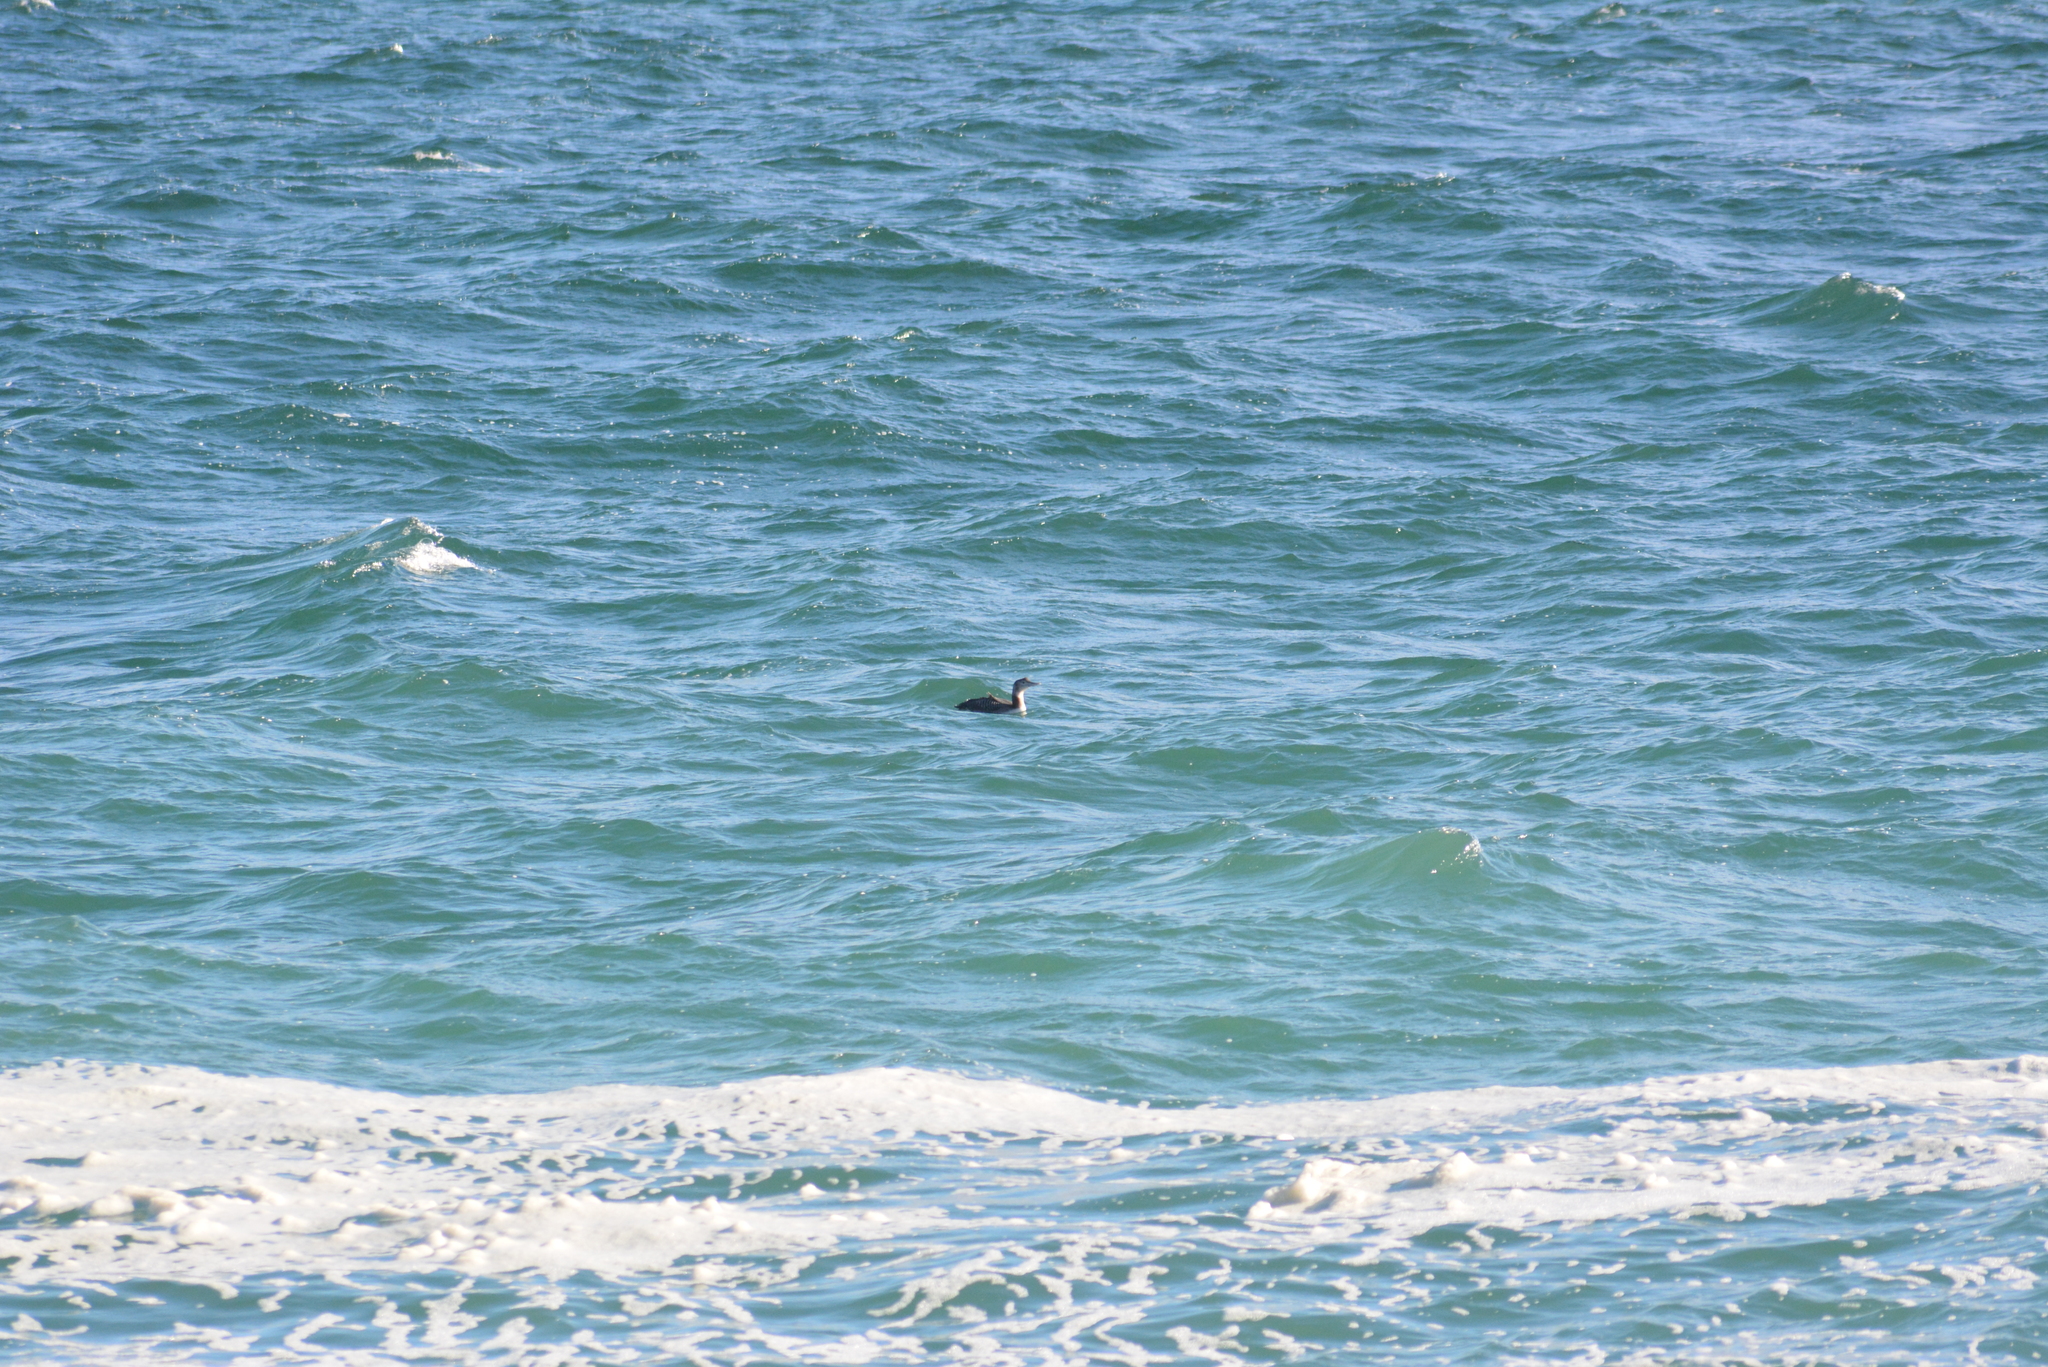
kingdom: Animalia
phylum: Chordata
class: Aves
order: Gaviiformes
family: Gaviidae
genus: Gavia
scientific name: Gavia adamsii
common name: Yellow-billed loon
